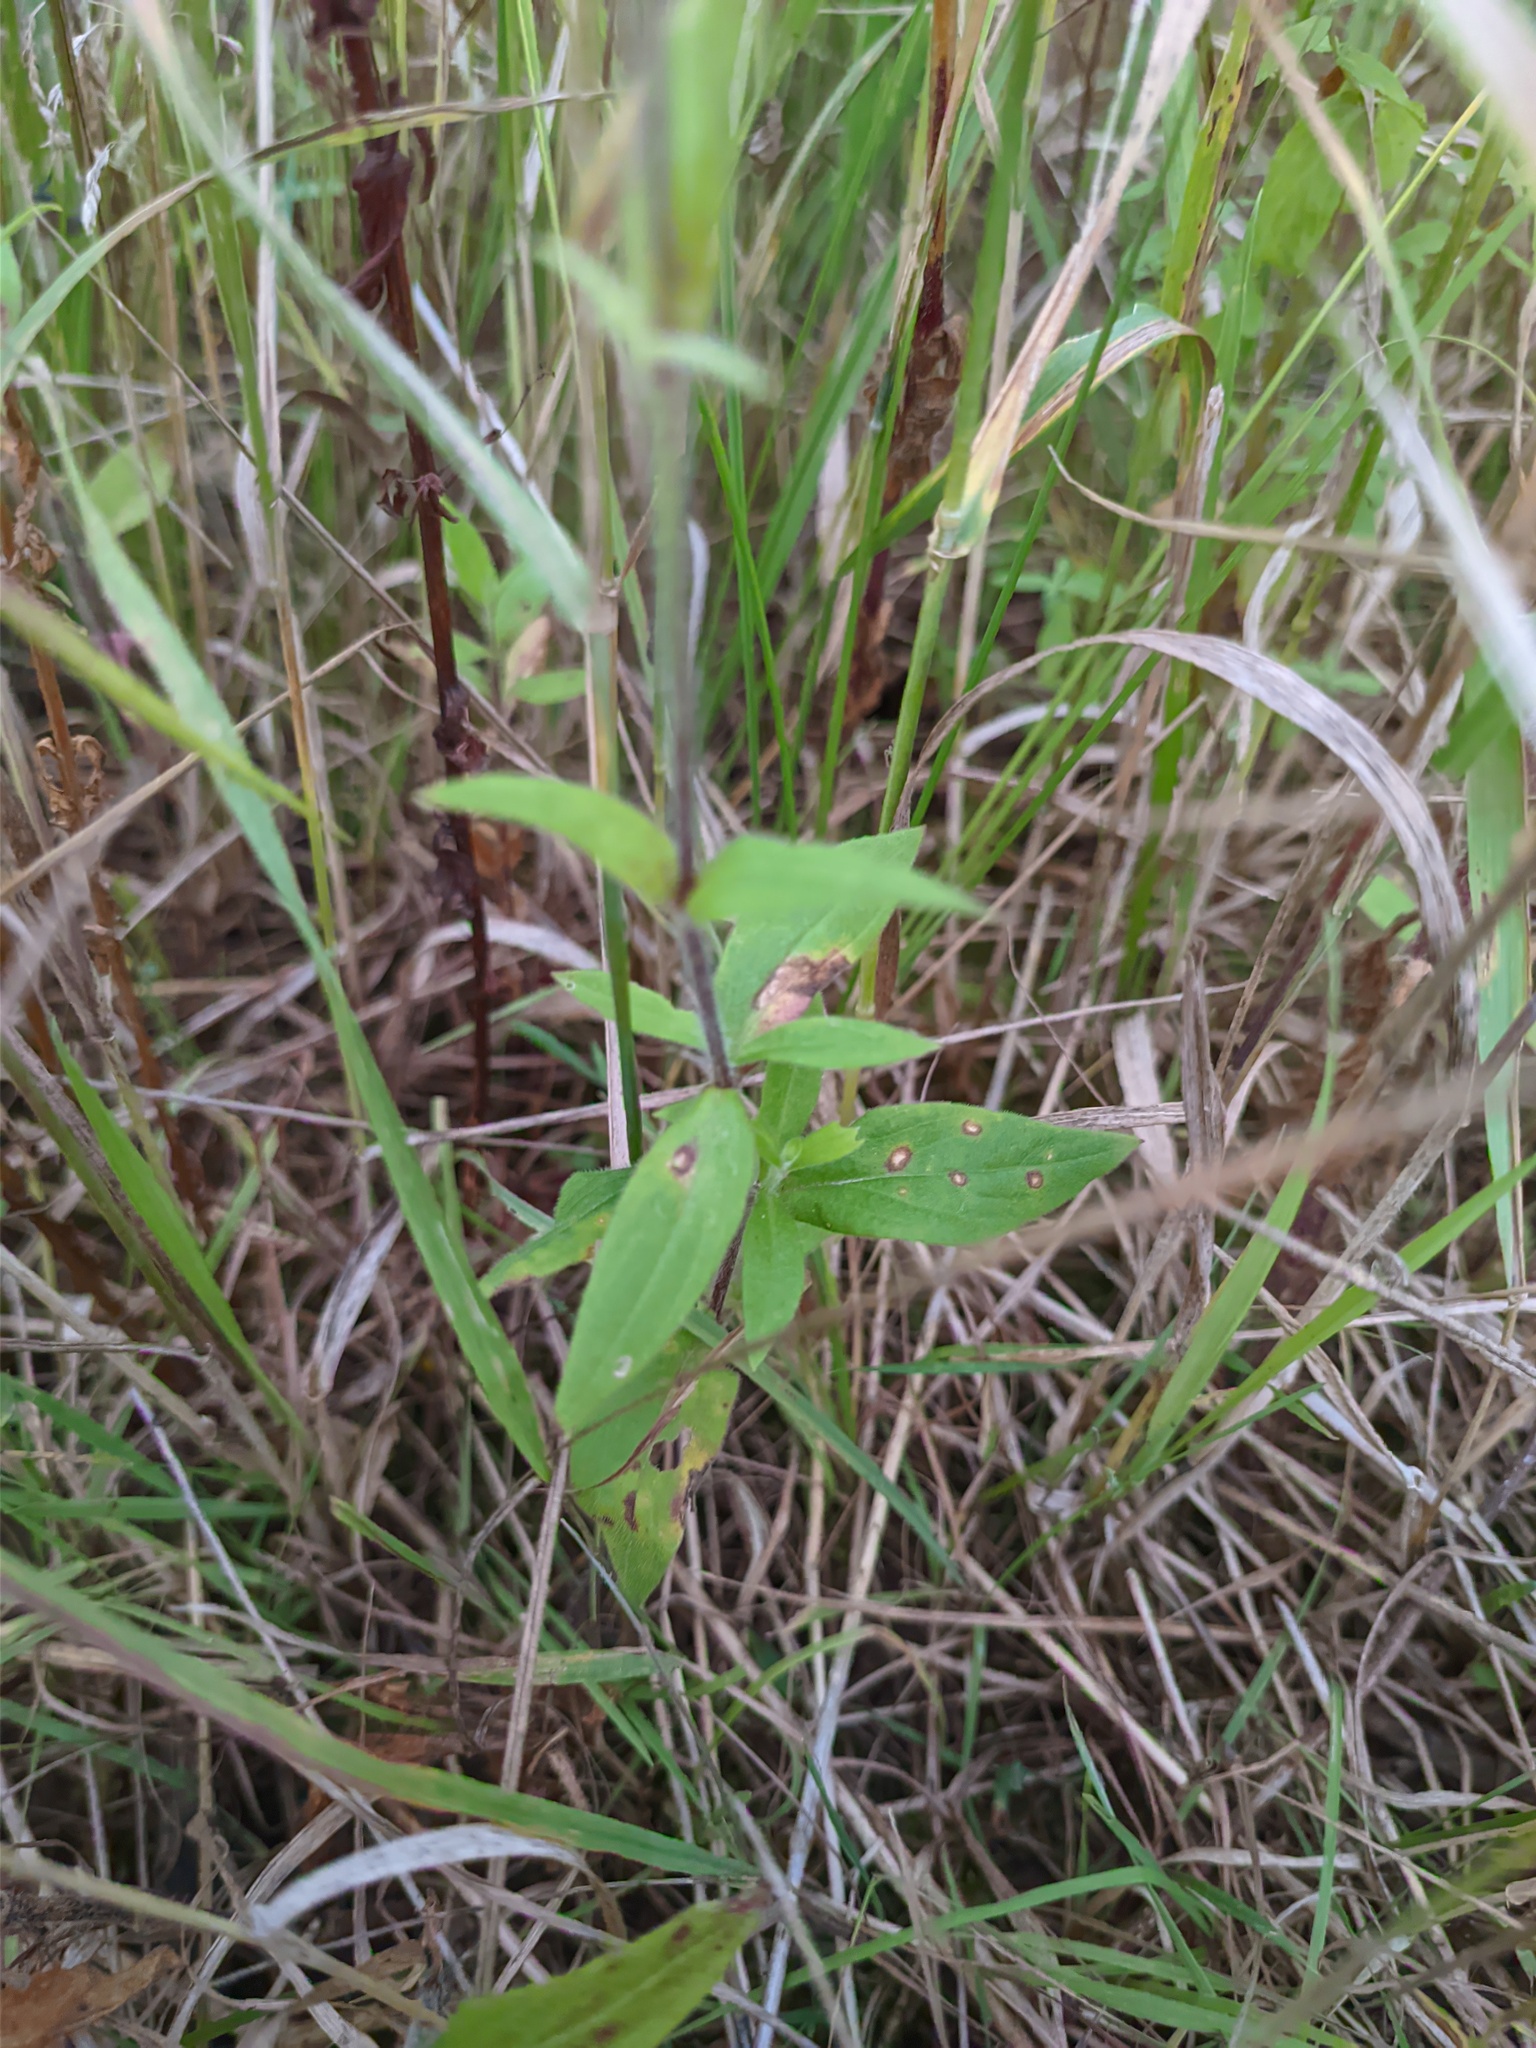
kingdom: Plantae
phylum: Tracheophyta
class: Magnoliopsida
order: Caryophyllales
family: Caryophyllaceae
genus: Silene
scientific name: Silene latifolia
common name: White campion
